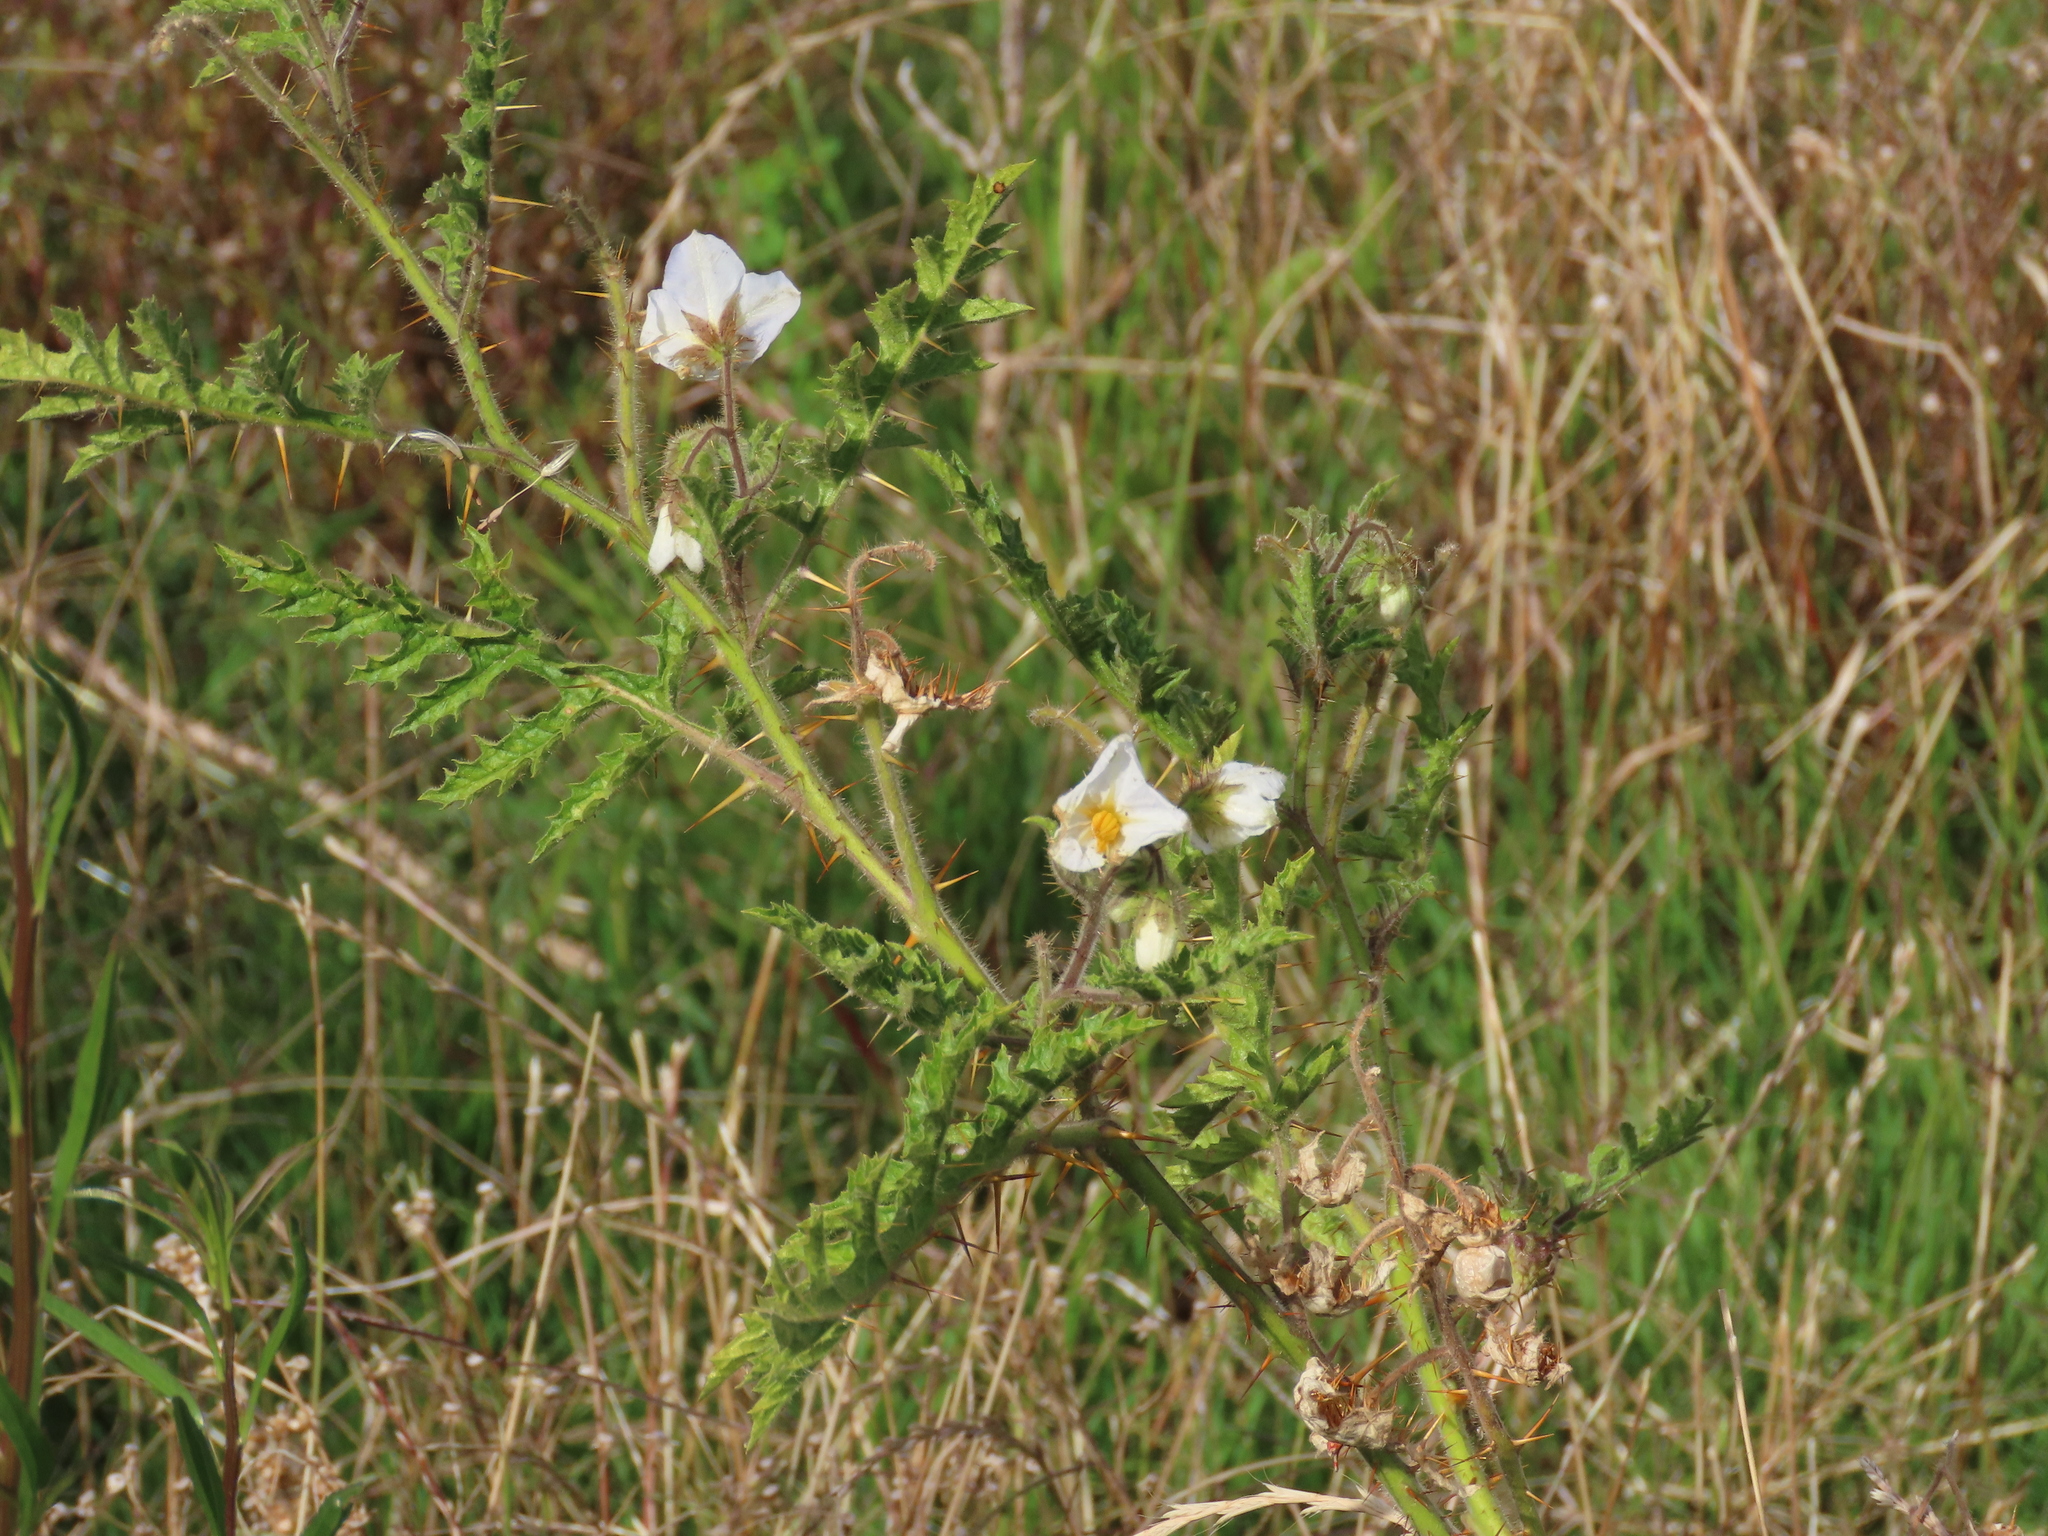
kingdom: Plantae
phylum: Tracheophyta
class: Magnoliopsida
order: Solanales
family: Solanaceae
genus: Solanum
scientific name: Solanum sisymbriifolium
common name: Red buffalo-bur
